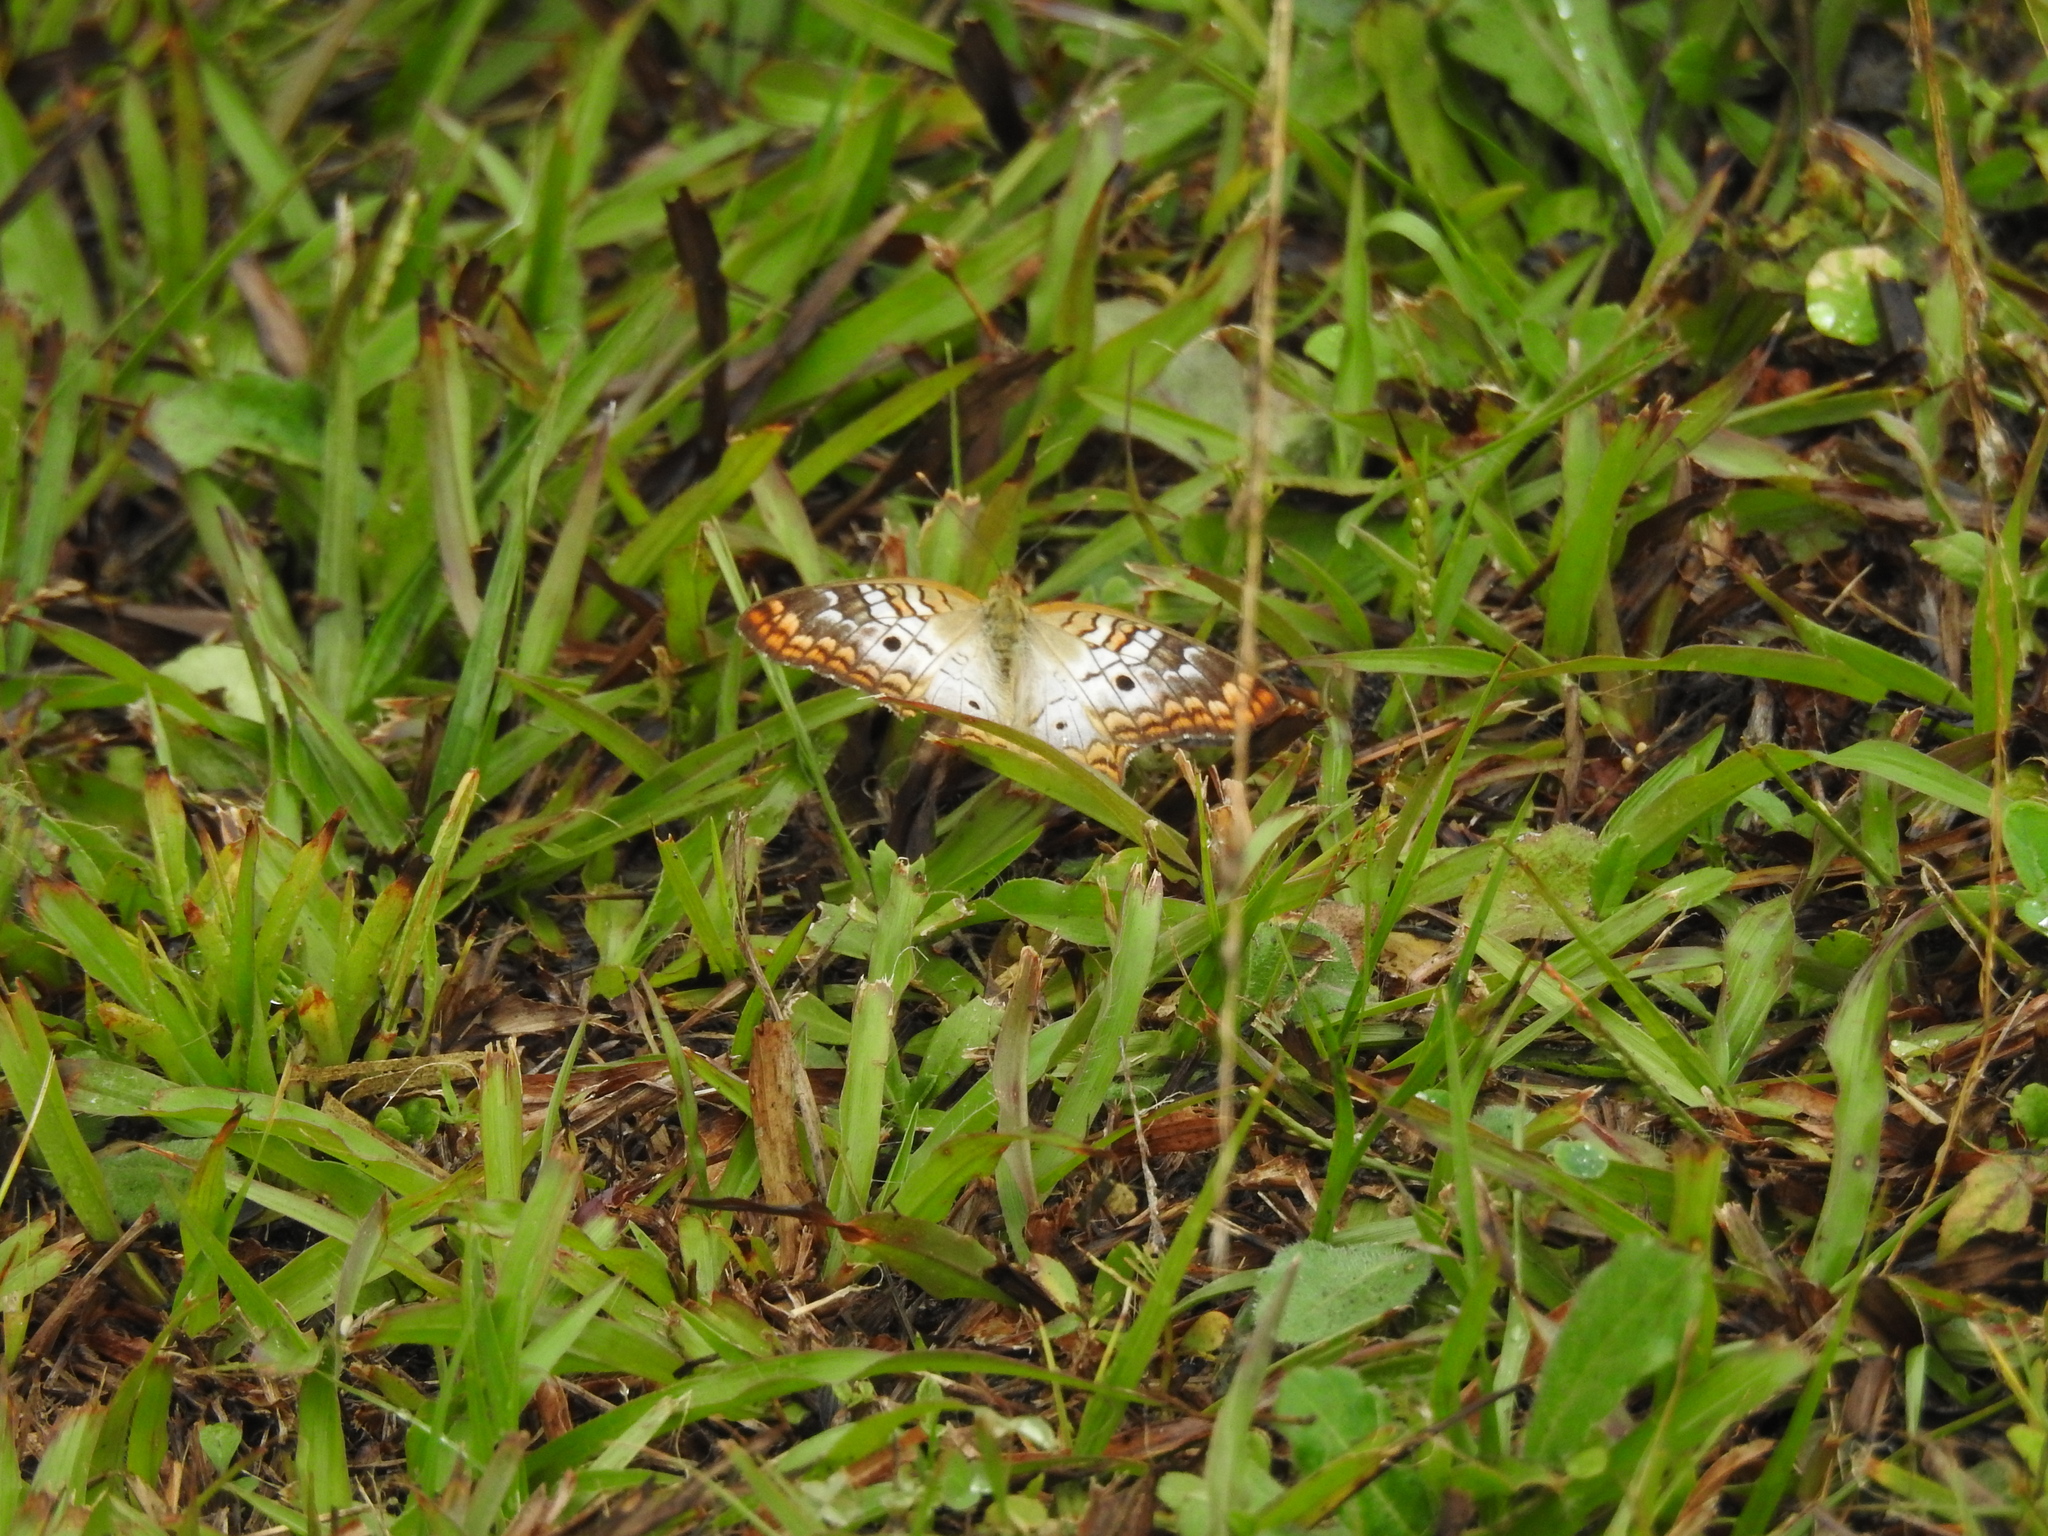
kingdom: Animalia
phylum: Arthropoda
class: Insecta
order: Lepidoptera
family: Nymphalidae
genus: Anartia
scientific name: Anartia jatrophae
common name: White peacock
